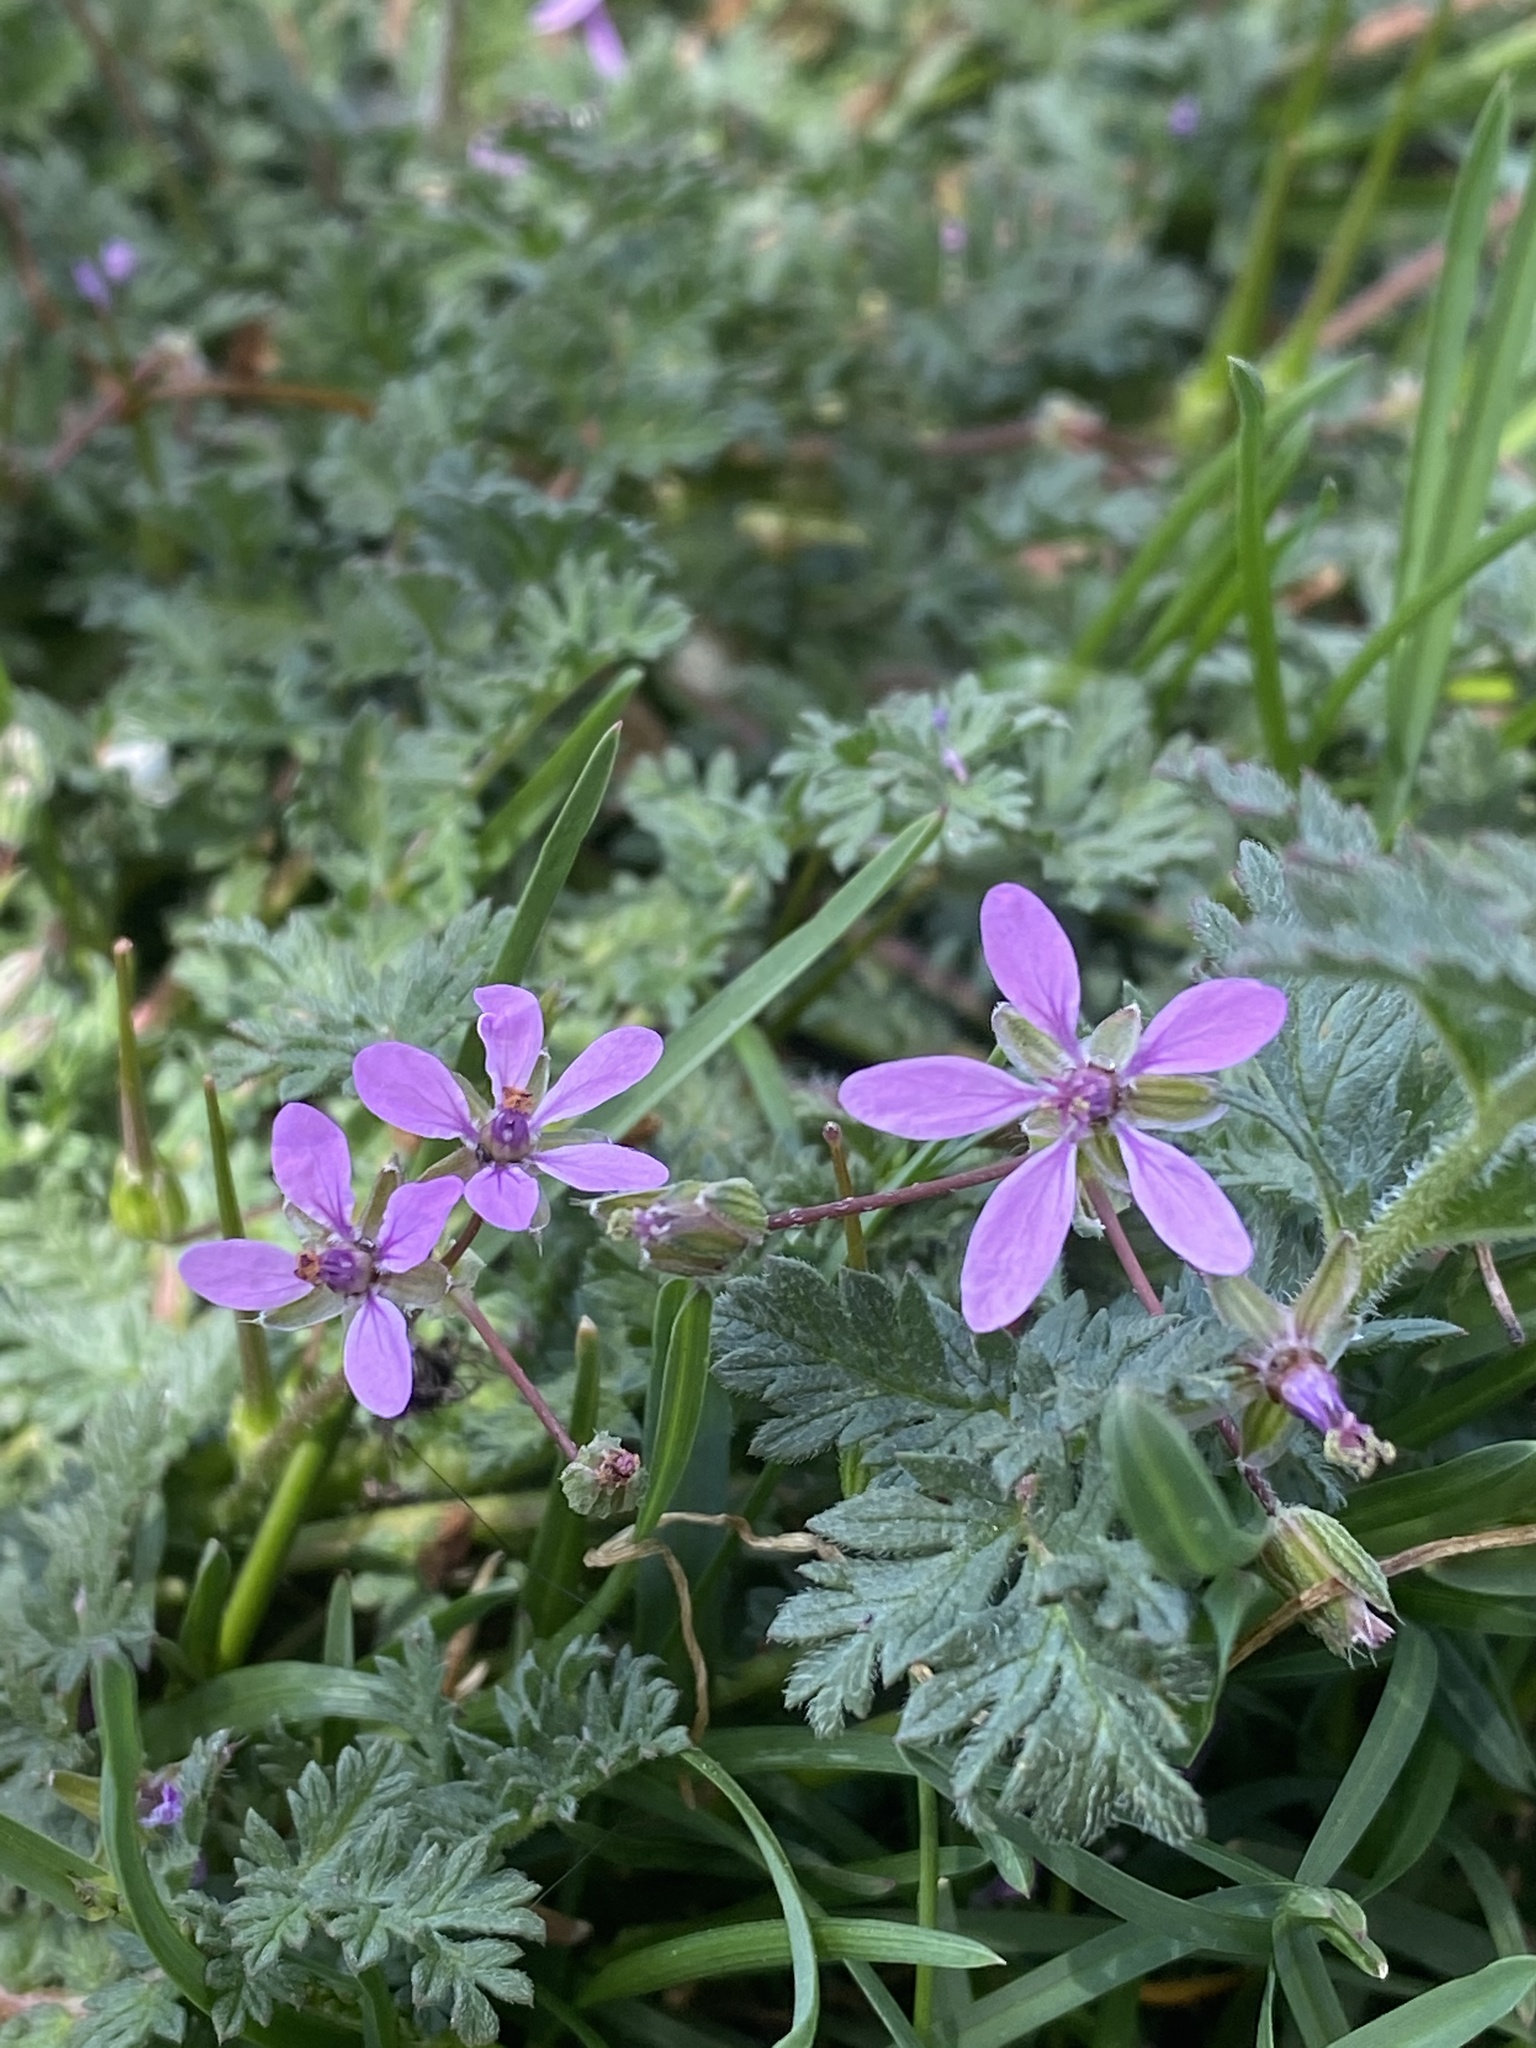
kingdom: Plantae
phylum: Tracheophyta
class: Magnoliopsida
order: Geraniales
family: Geraniaceae
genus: Erodium
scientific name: Erodium cicutarium
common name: Common stork's-bill
